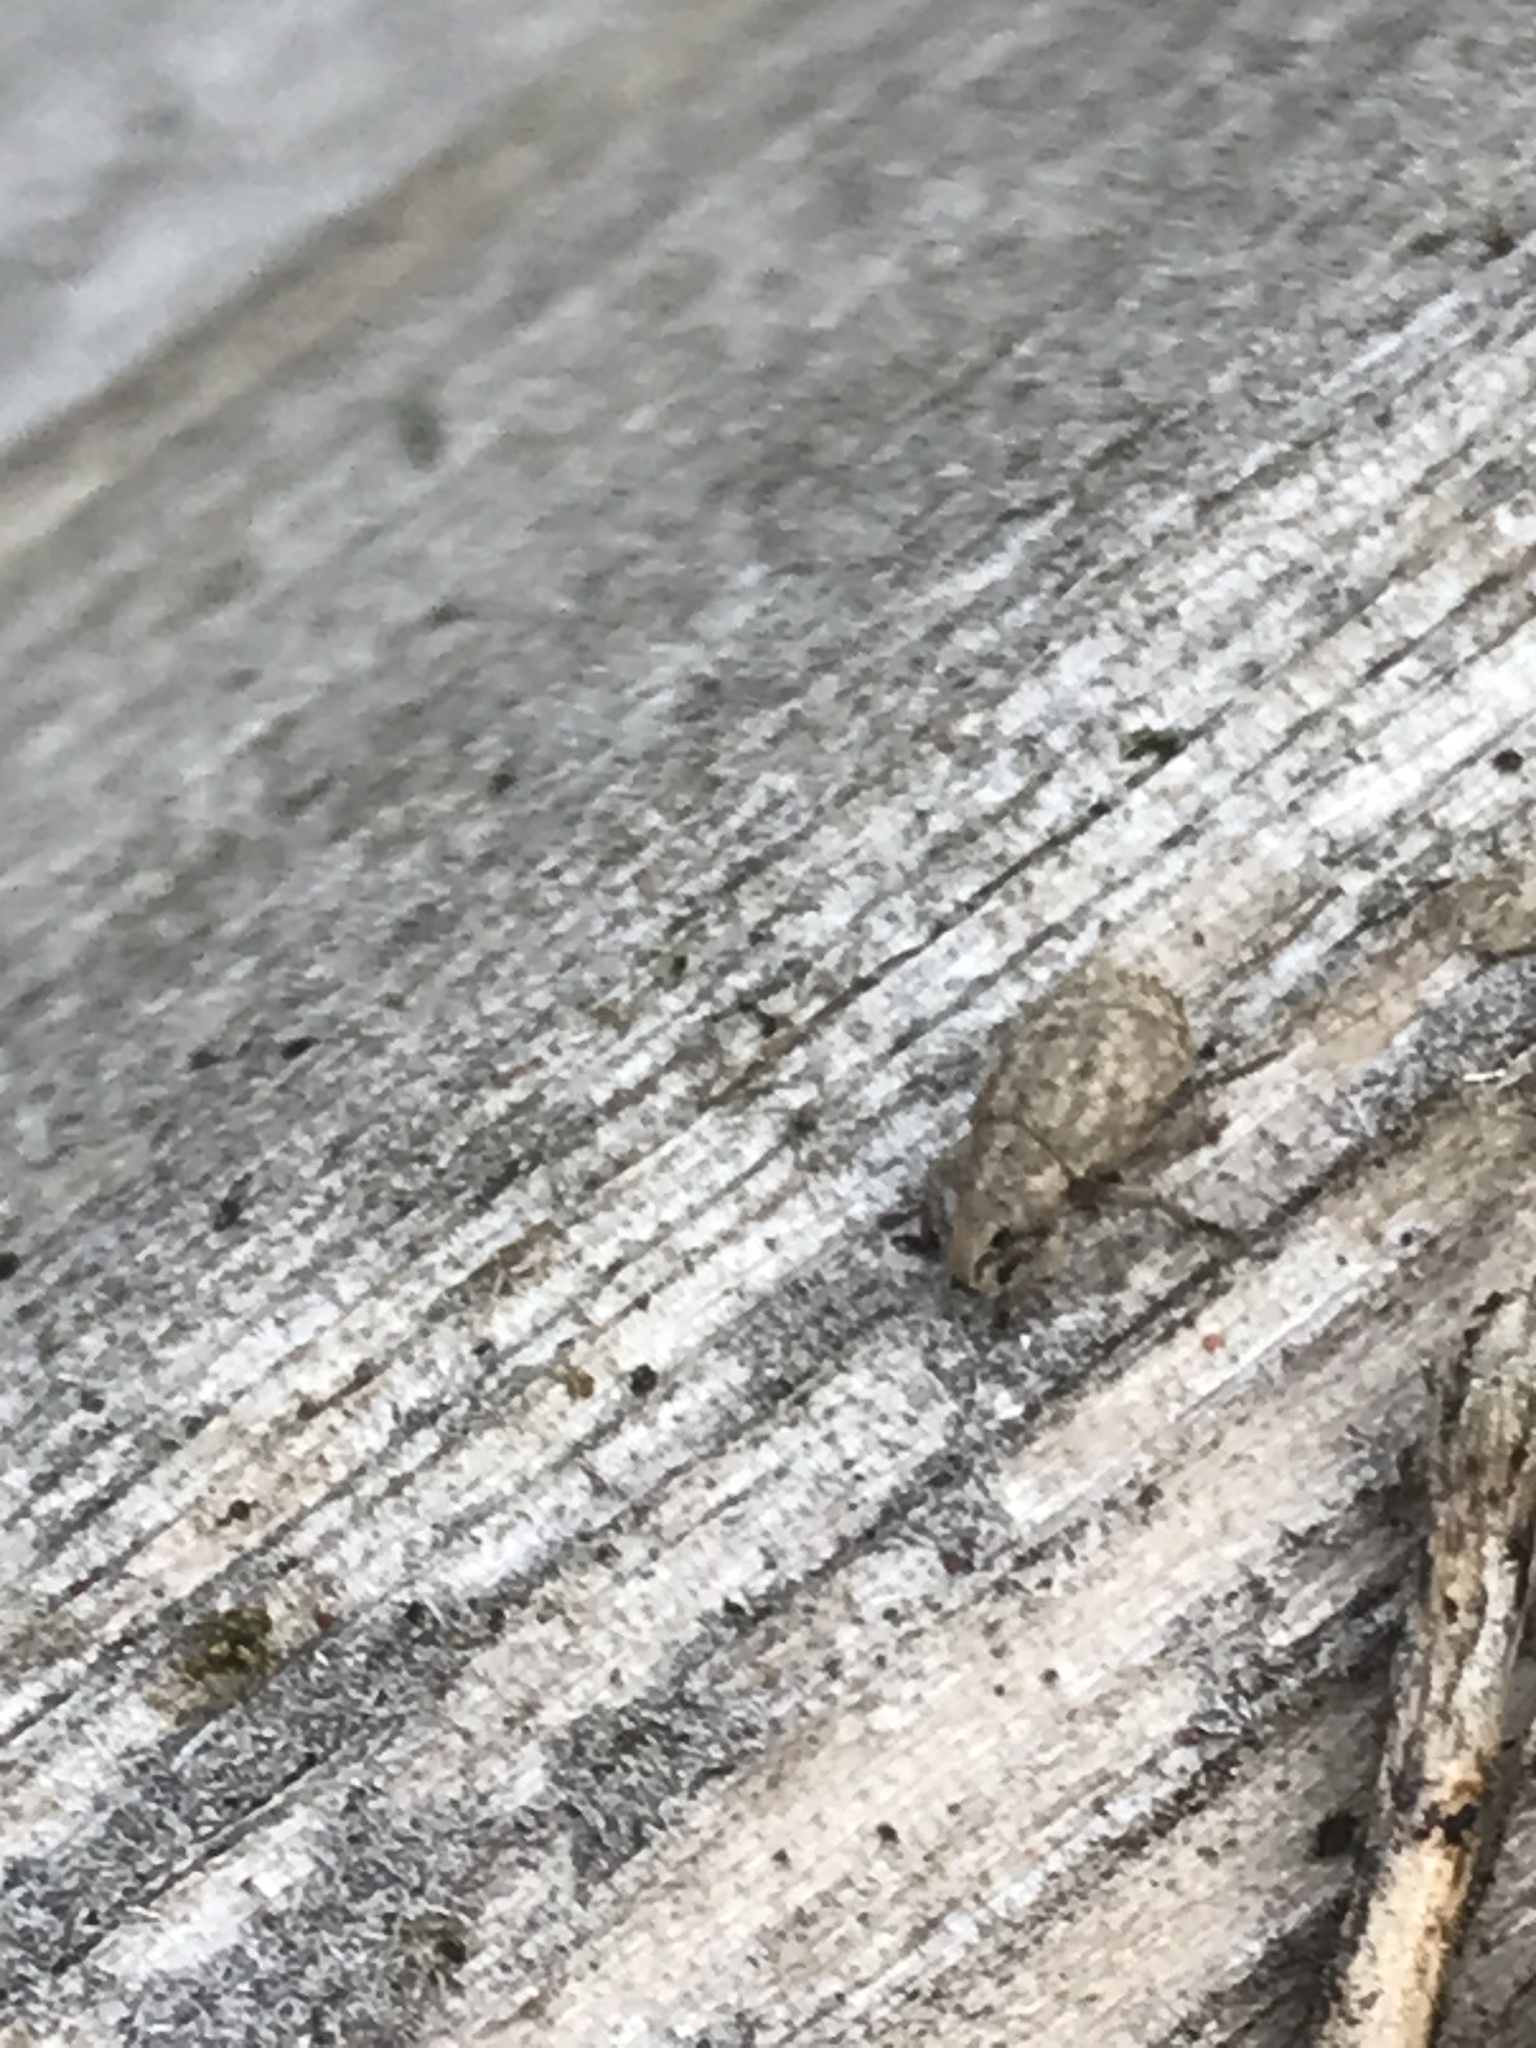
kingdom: Animalia
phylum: Arthropoda
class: Insecta
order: Coleoptera
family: Curculionidae
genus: Romualdius
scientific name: Romualdius scaber
